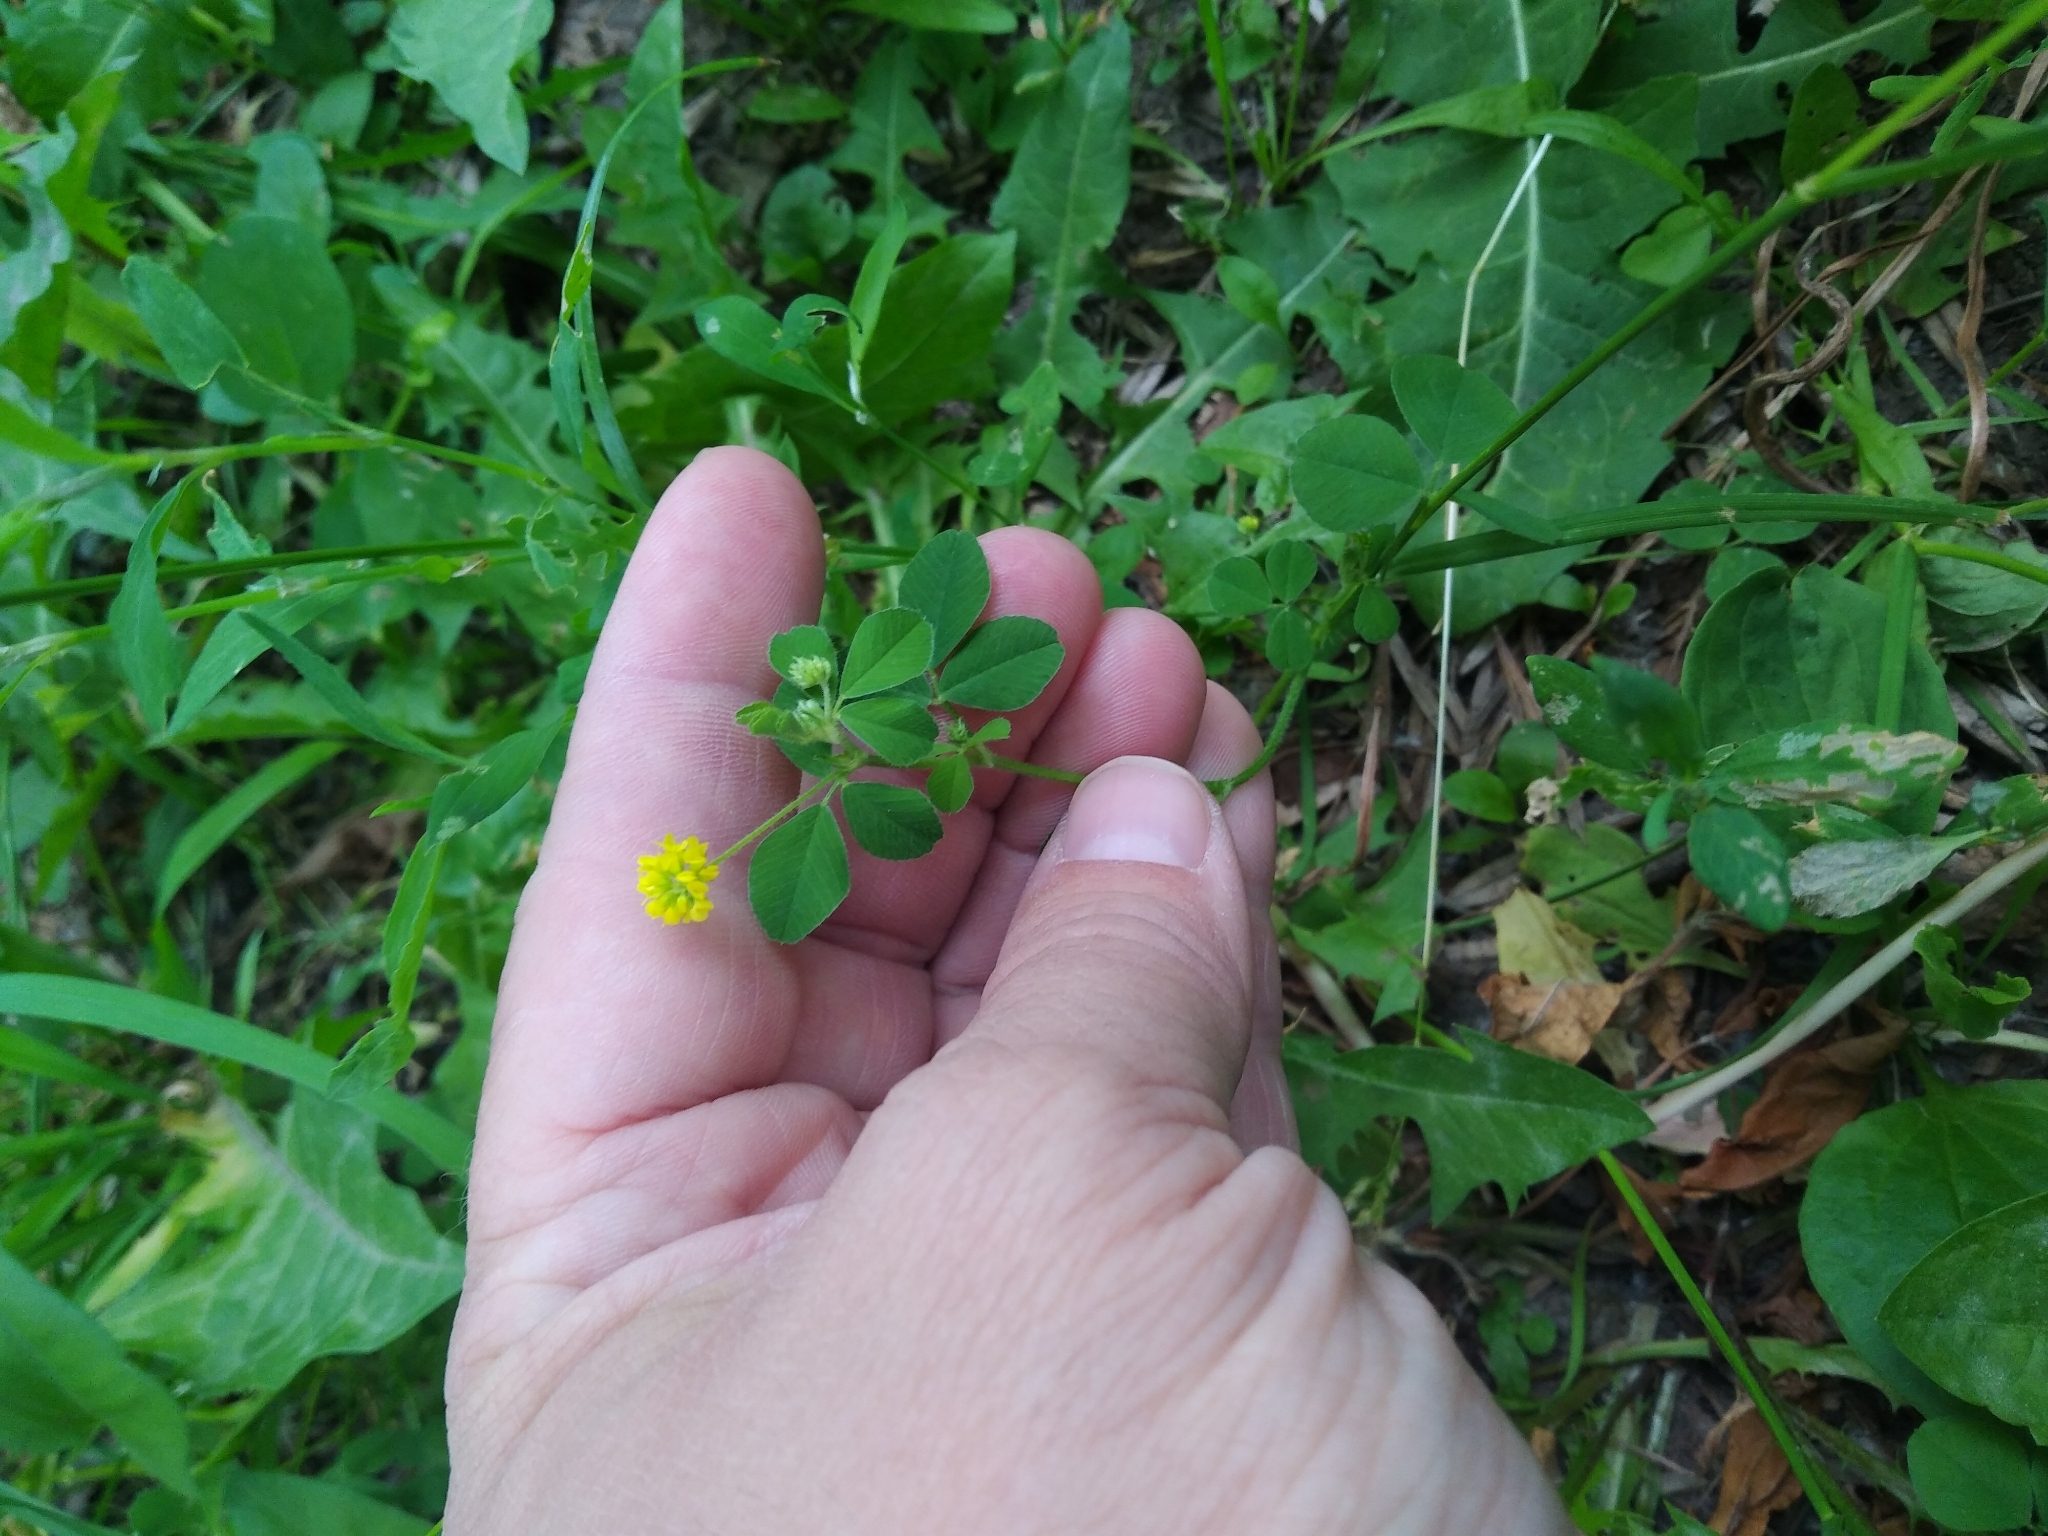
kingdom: Plantae
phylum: Tracheophyta
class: Magnoliopsida
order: Fabales
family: Fabaceae
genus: Medicago
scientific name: Medicago lupulina
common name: Black medick
